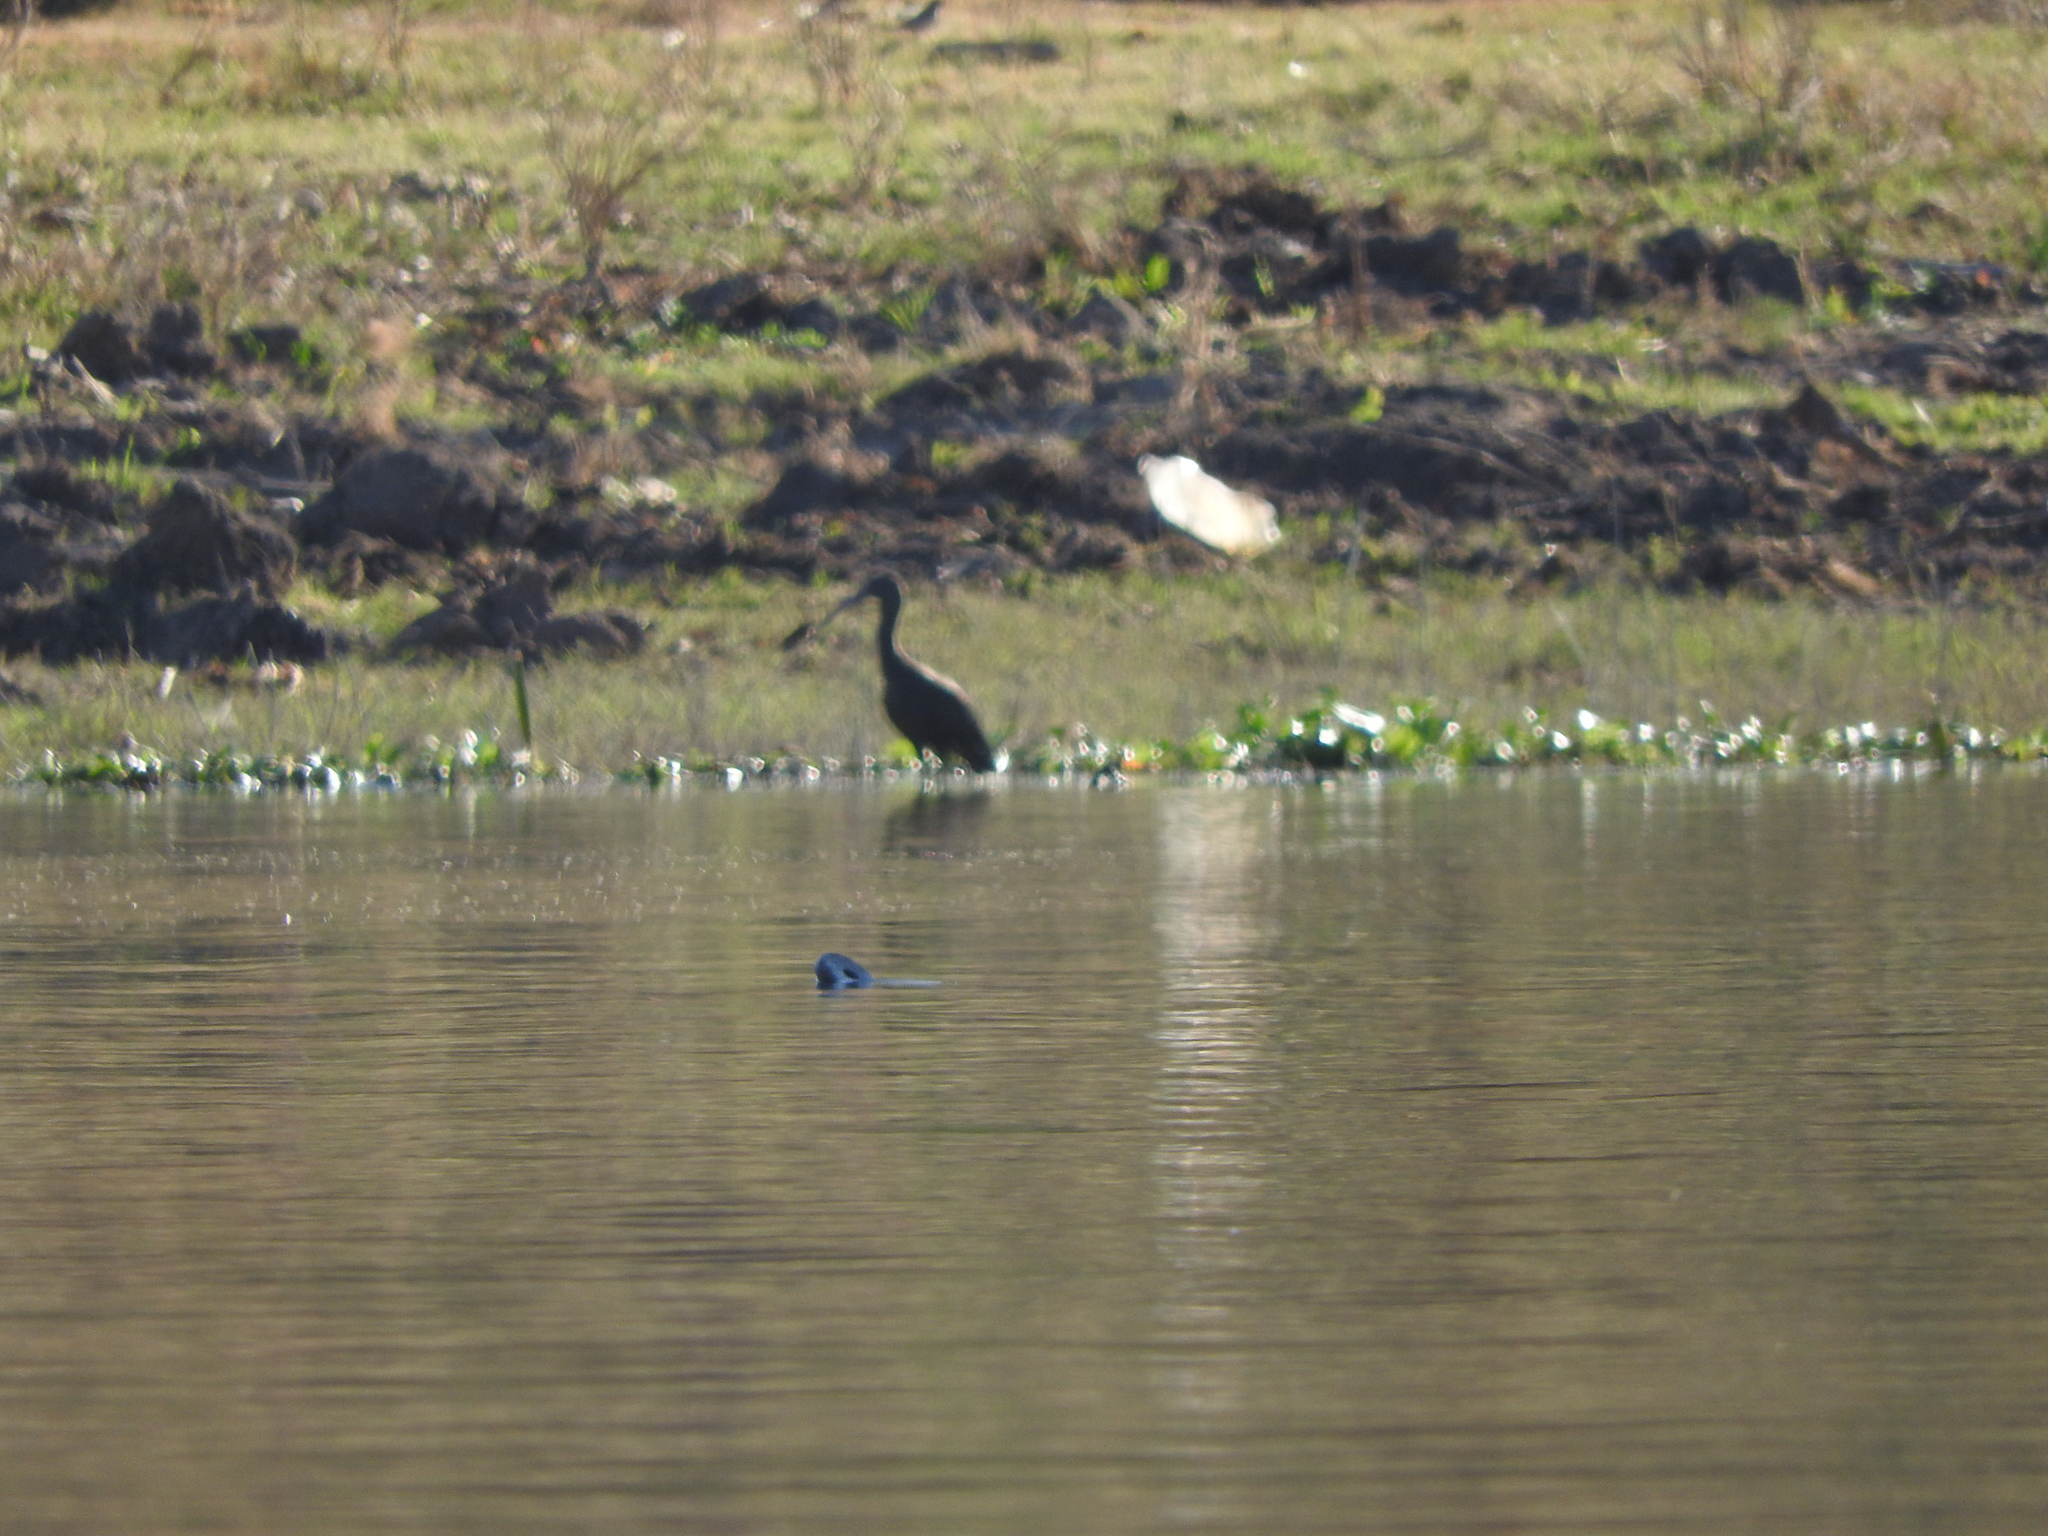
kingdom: Animalia
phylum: Chordata
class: Aves
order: Pelecaniformes
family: Threskiornithidae
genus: Plegadis
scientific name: Plegadis chihi
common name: White-faced ibis
